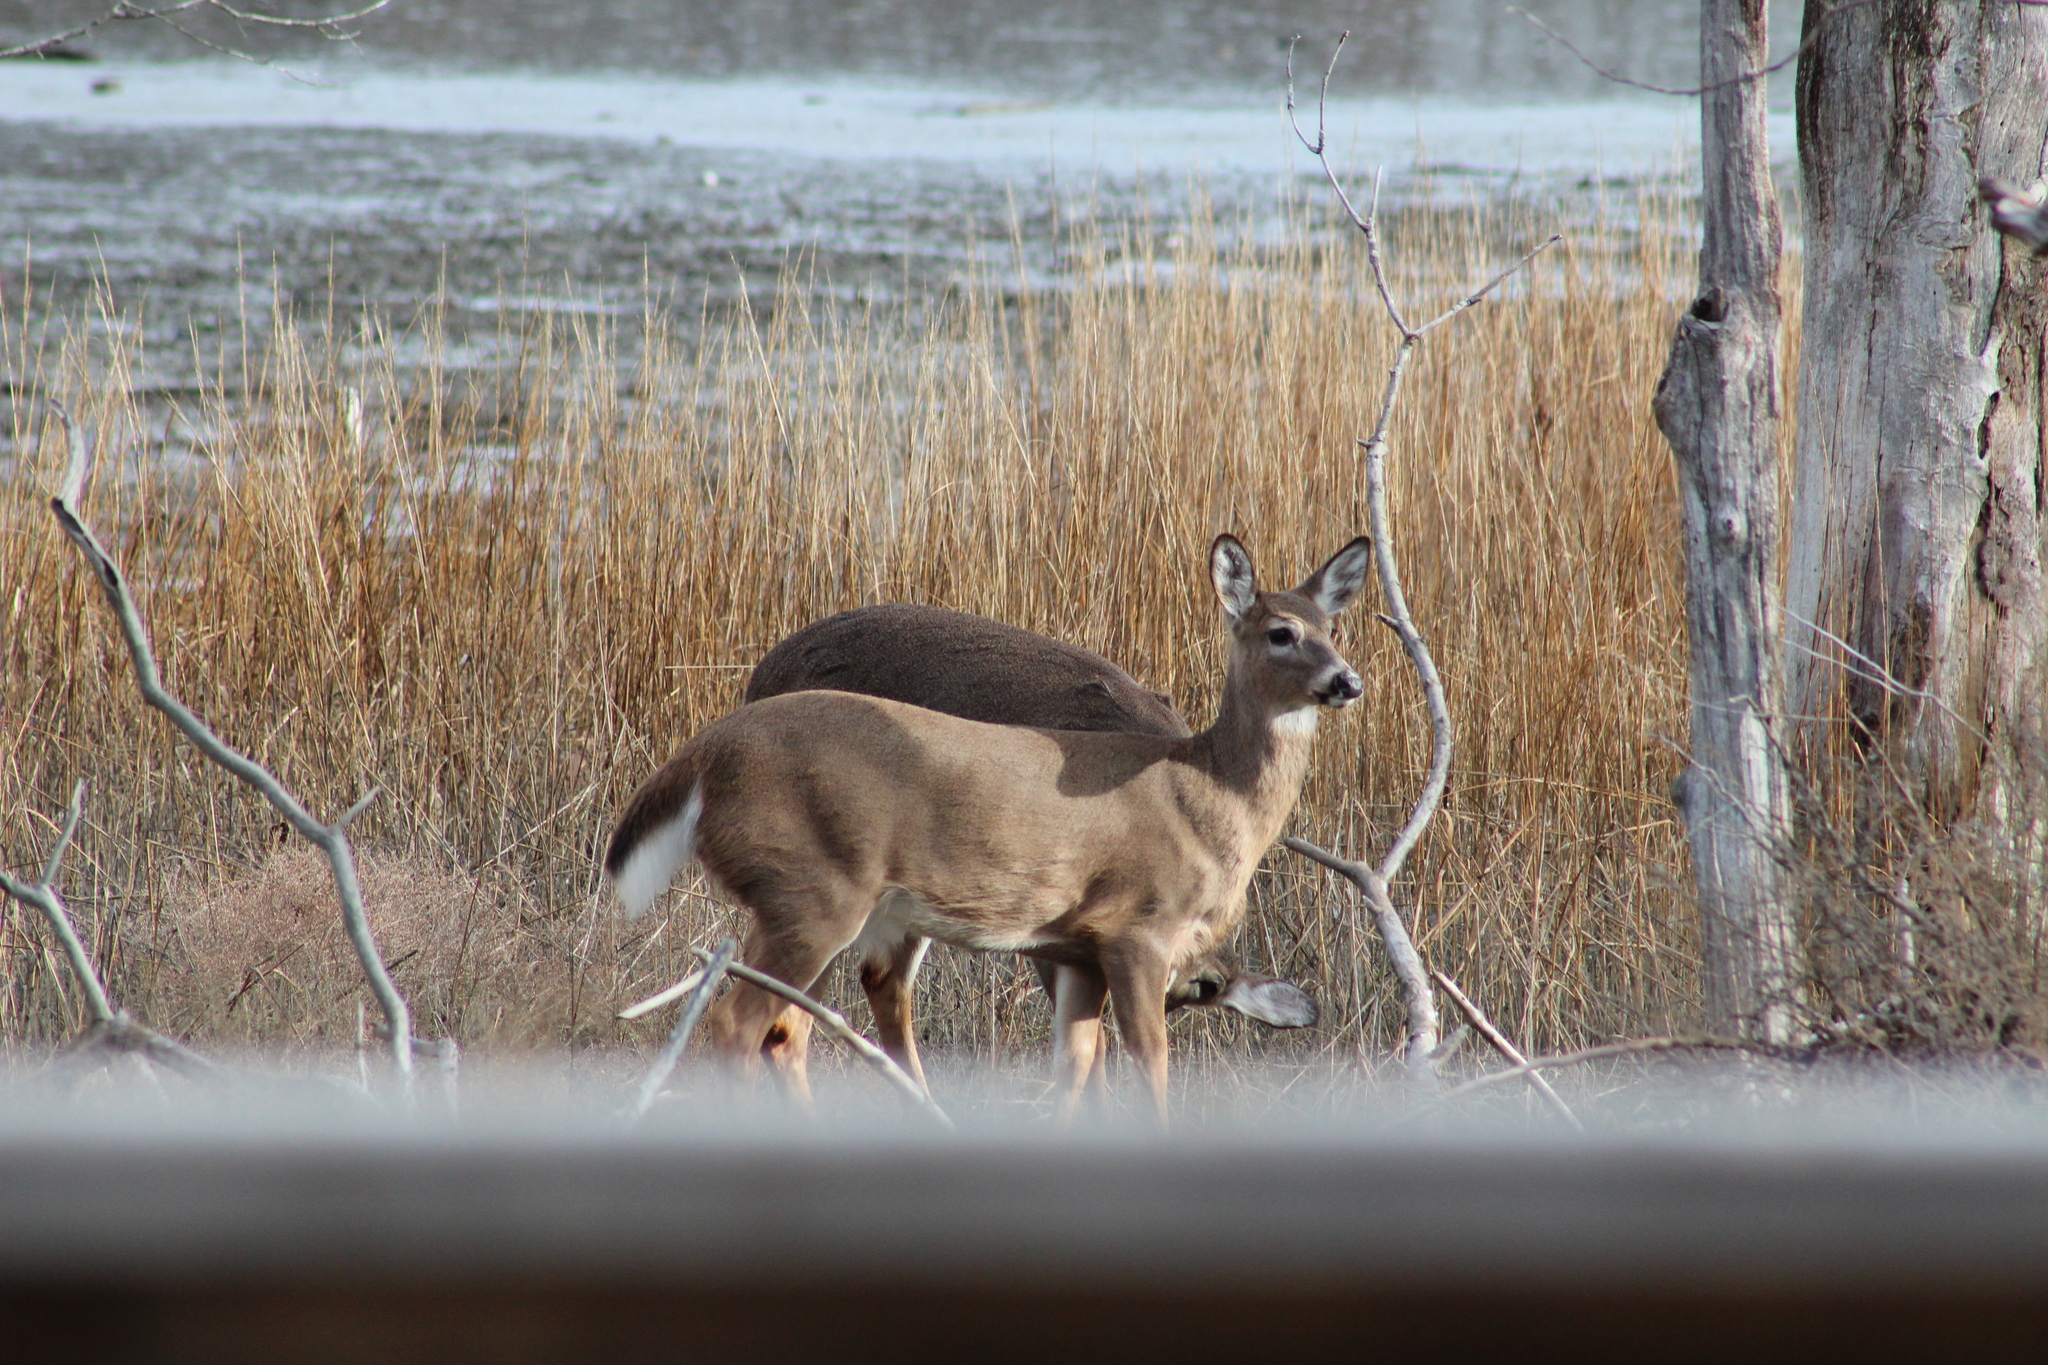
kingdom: Animalia
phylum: Chordata
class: Mammalia
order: Artiodactyla
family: Cervidae
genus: Odocoileus
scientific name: Odocoileus virginianus
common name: White-tailed deer
